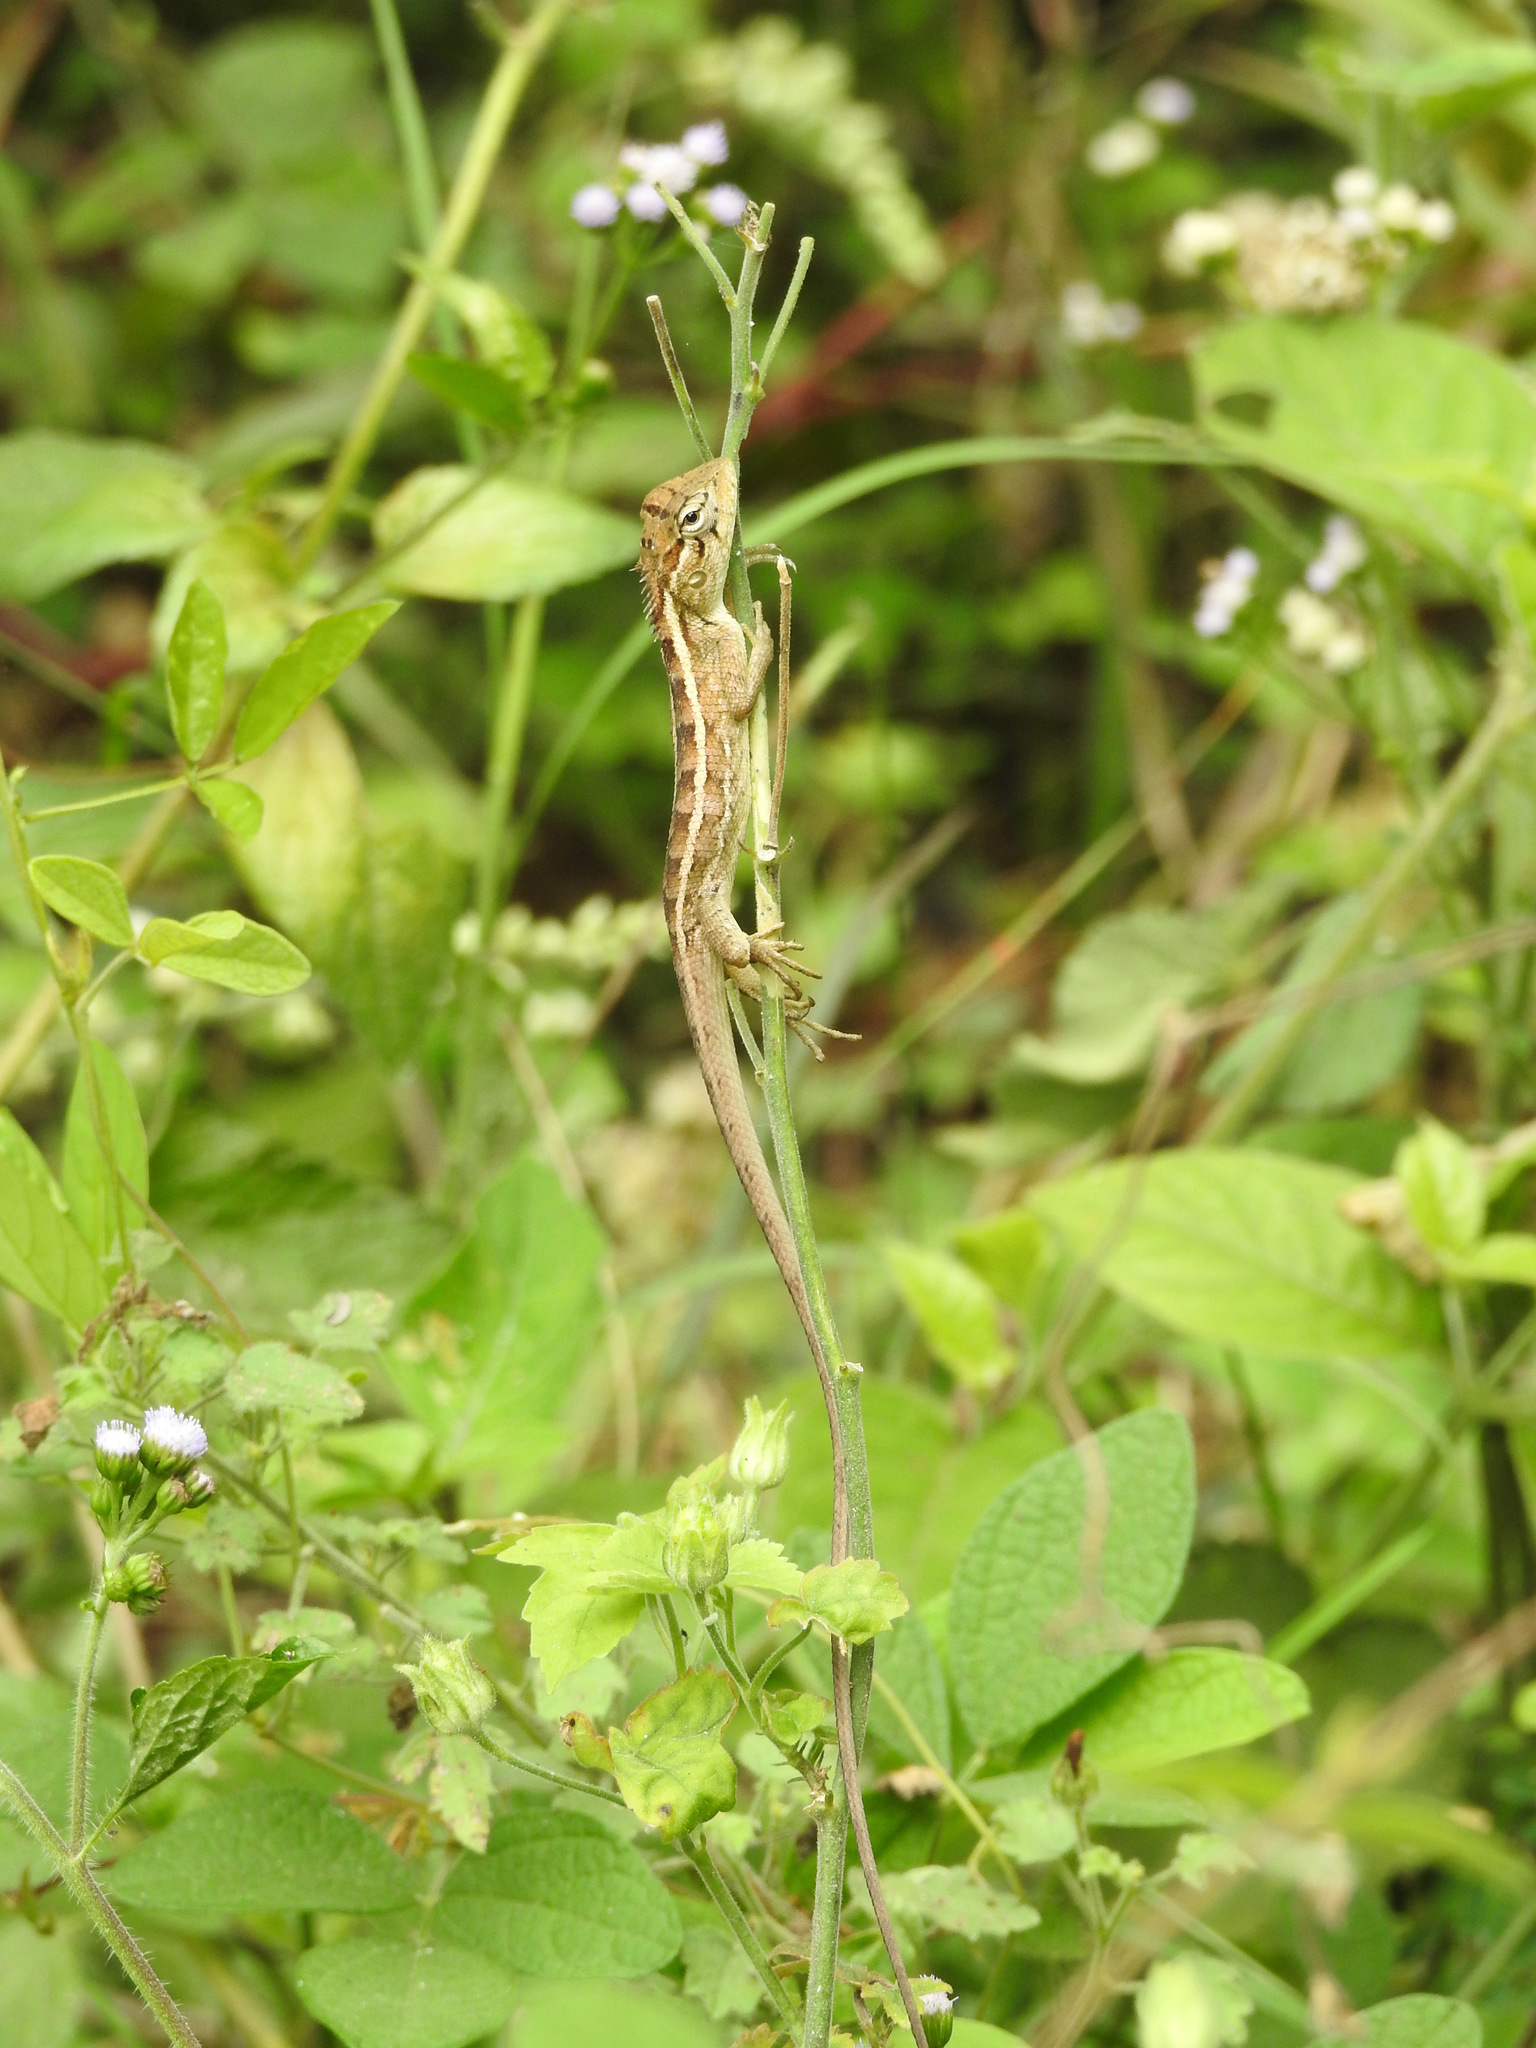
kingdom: Animalia
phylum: Chordata
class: Squamata
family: Agamidae
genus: Calotes
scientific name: Calotes versicolor
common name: Oriental garden lizard
